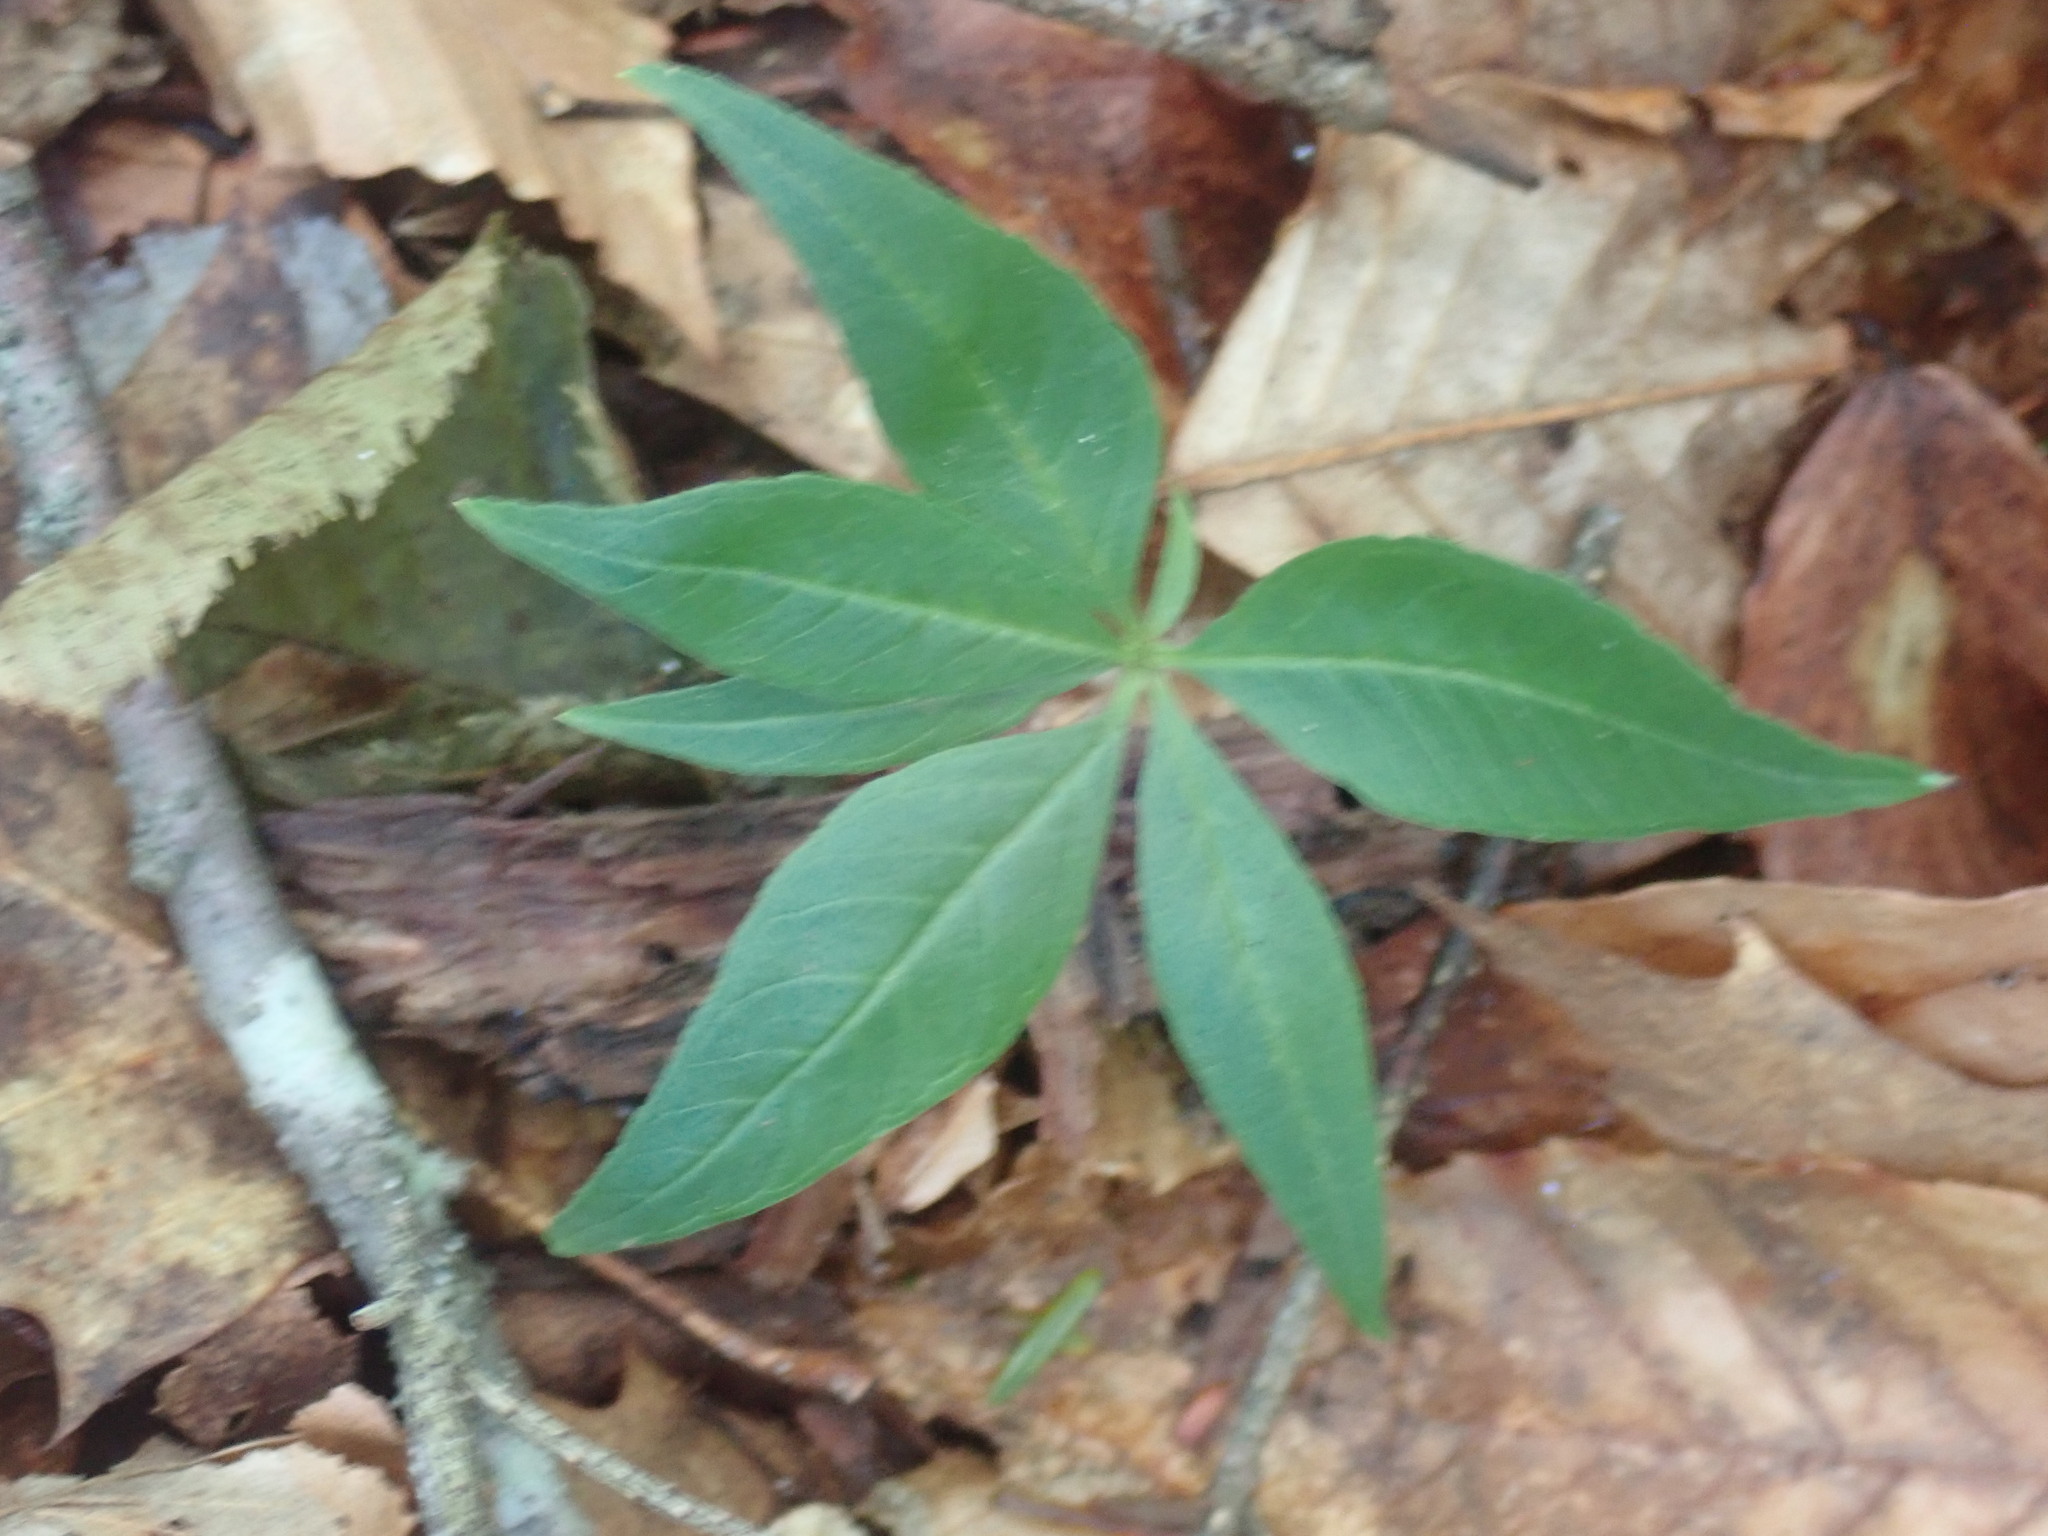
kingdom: Plantae
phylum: Tracheophyta
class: Magnoliopsida
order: Ericales
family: Primulaceae
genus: Lysimachia
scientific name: Lysimachia borealis
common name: American starflower
